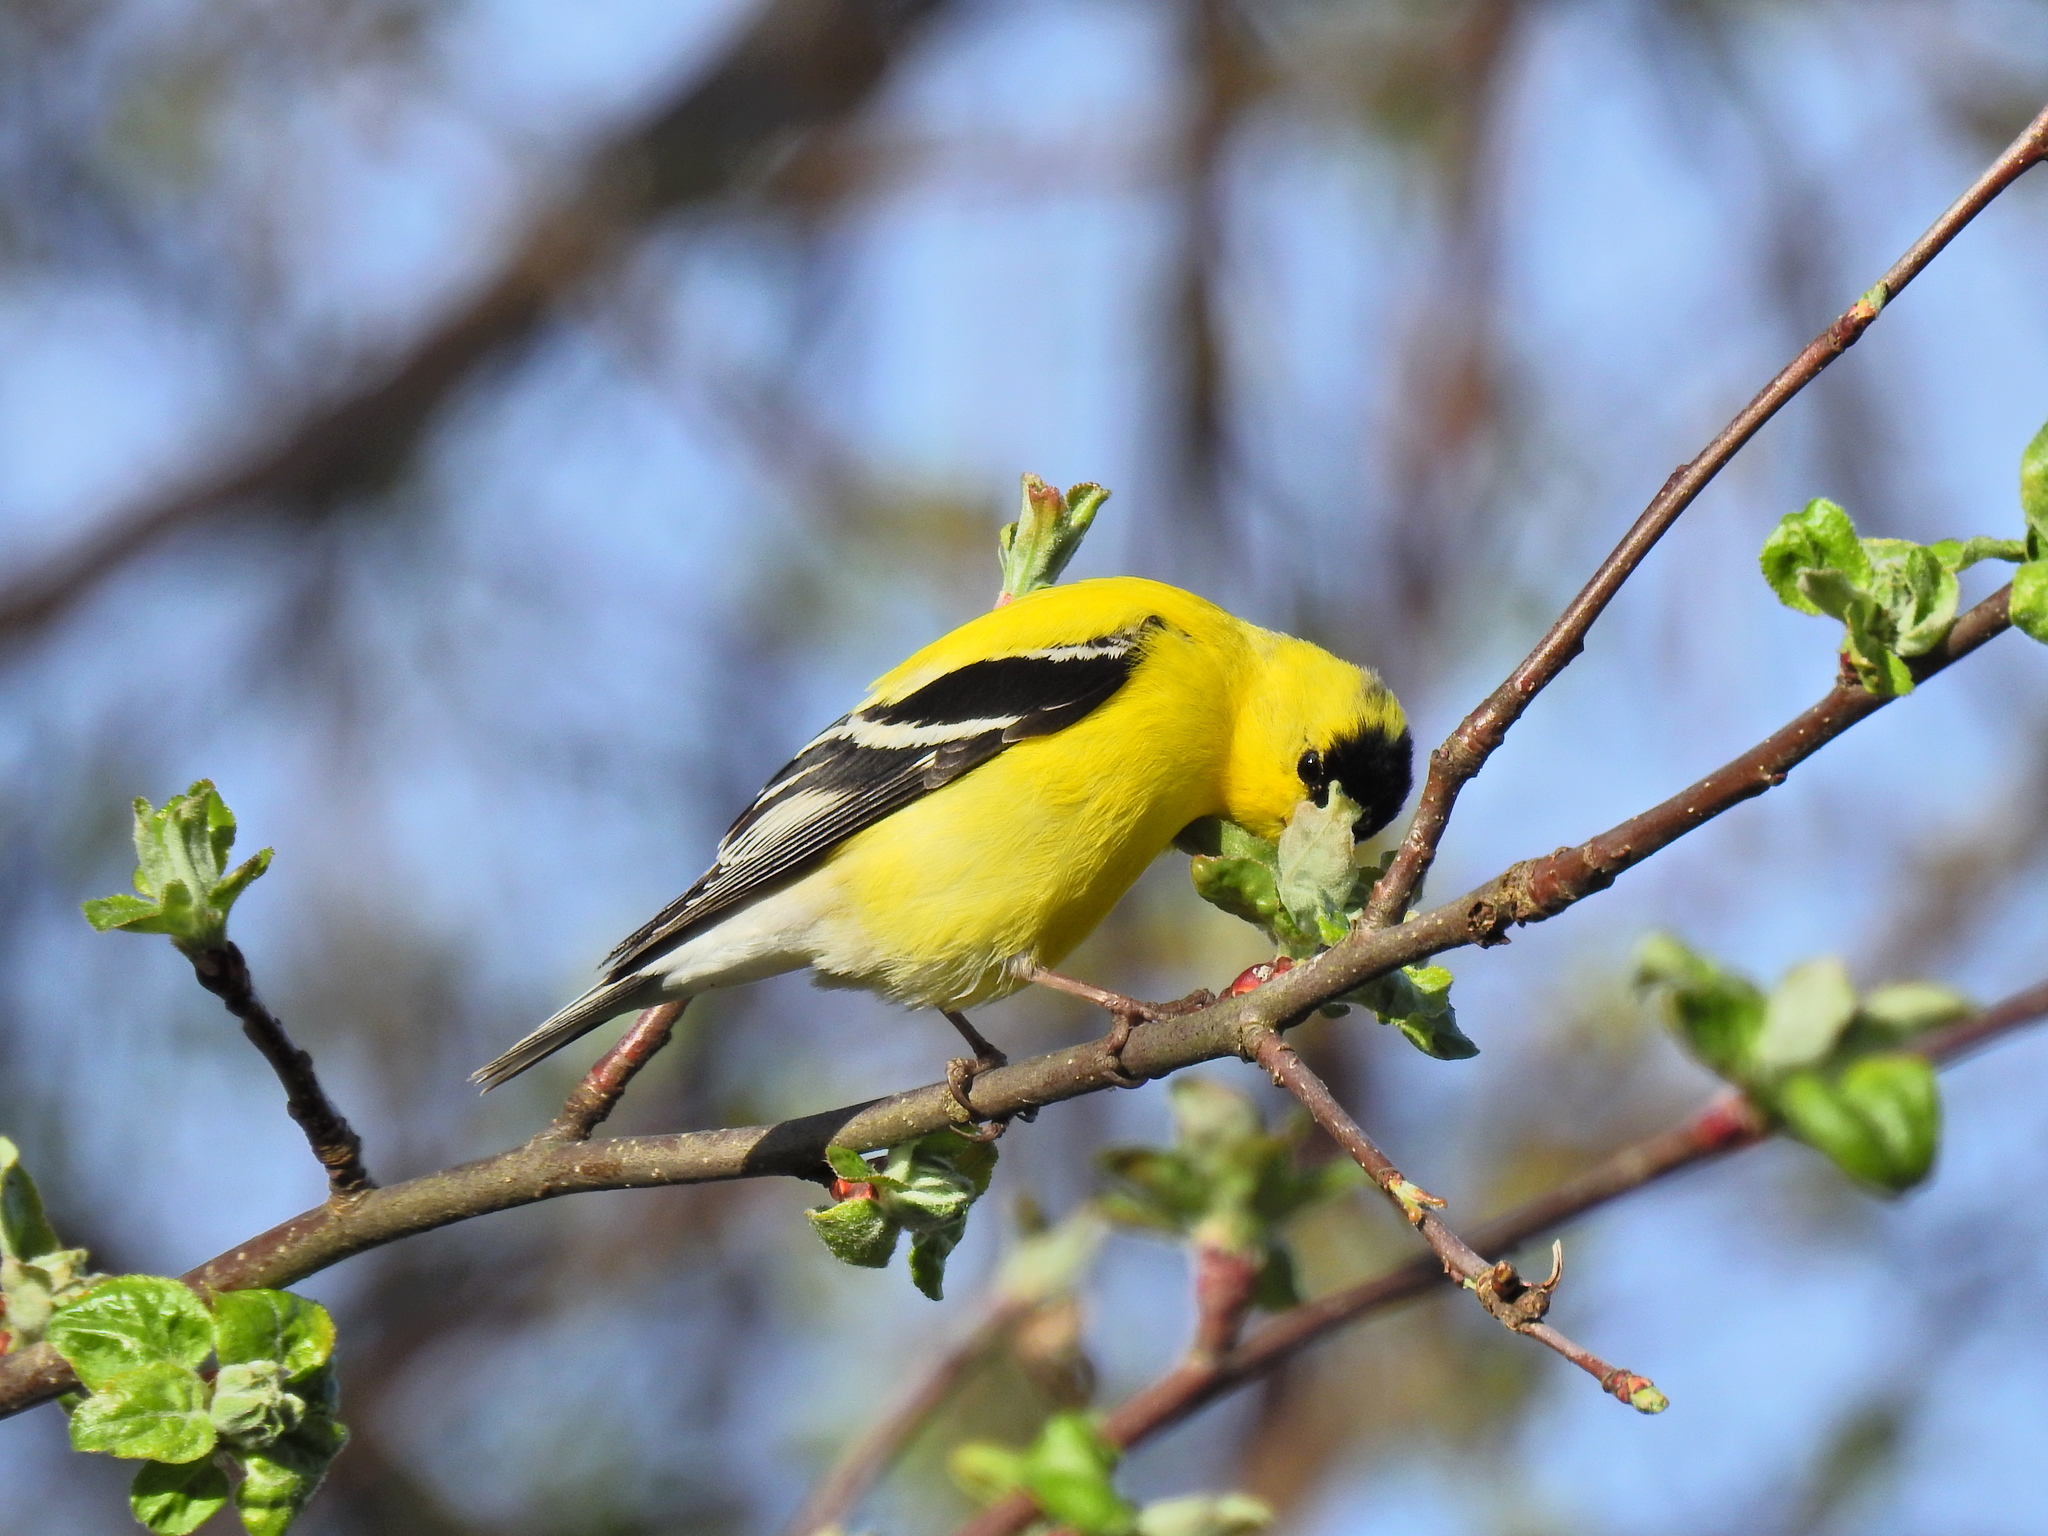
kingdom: Animalia
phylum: Chordata
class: Aves
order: Passeriformes
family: Fringillidae
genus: Spinus
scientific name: Spinus tristis
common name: American goldfinch
